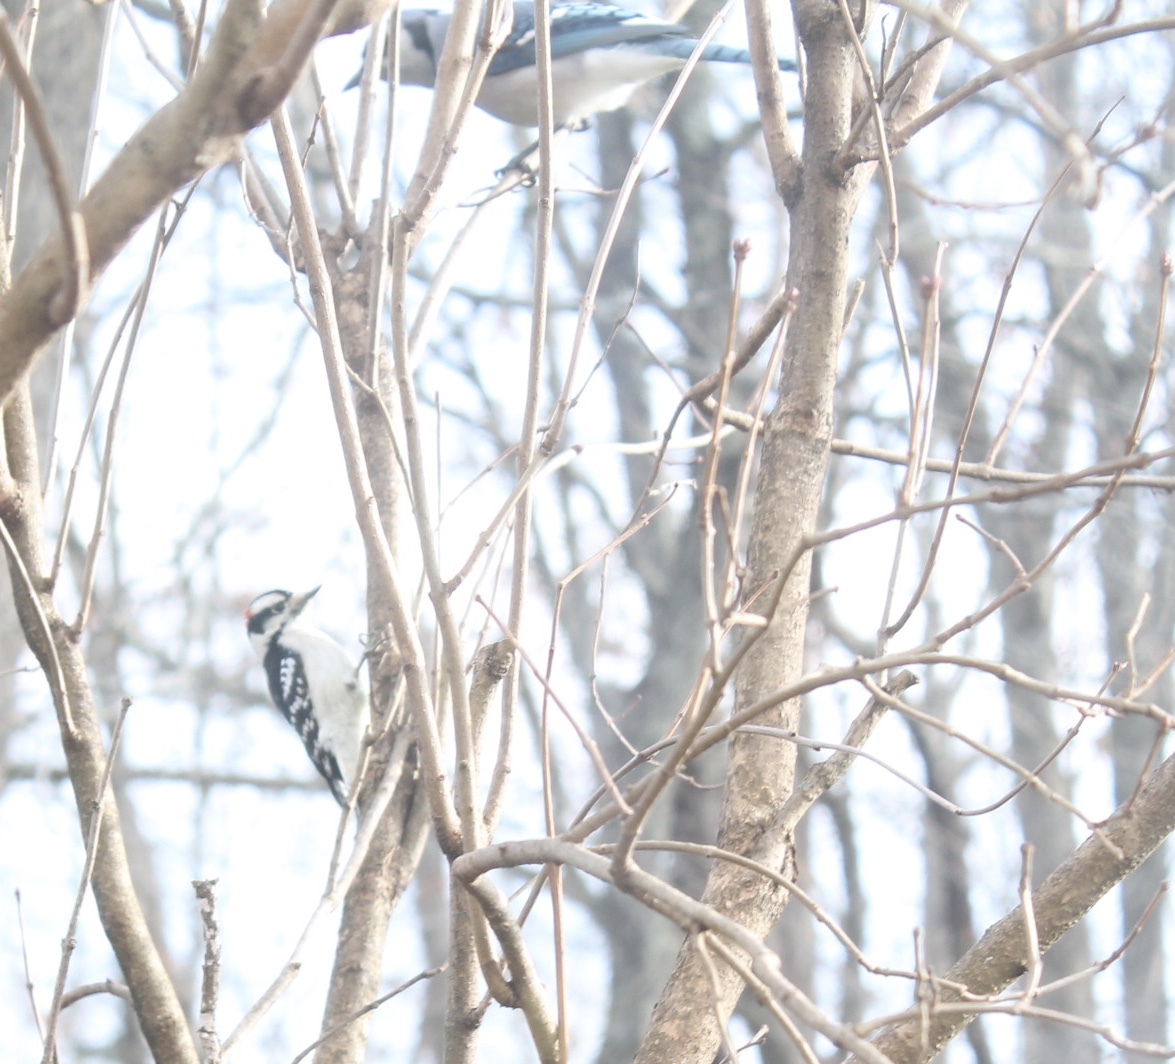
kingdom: Animalia
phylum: Chordata
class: Aves
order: Piciformes
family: Picidae
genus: Dryobates
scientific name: Dryobates pubescens
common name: Downy woodpecker
